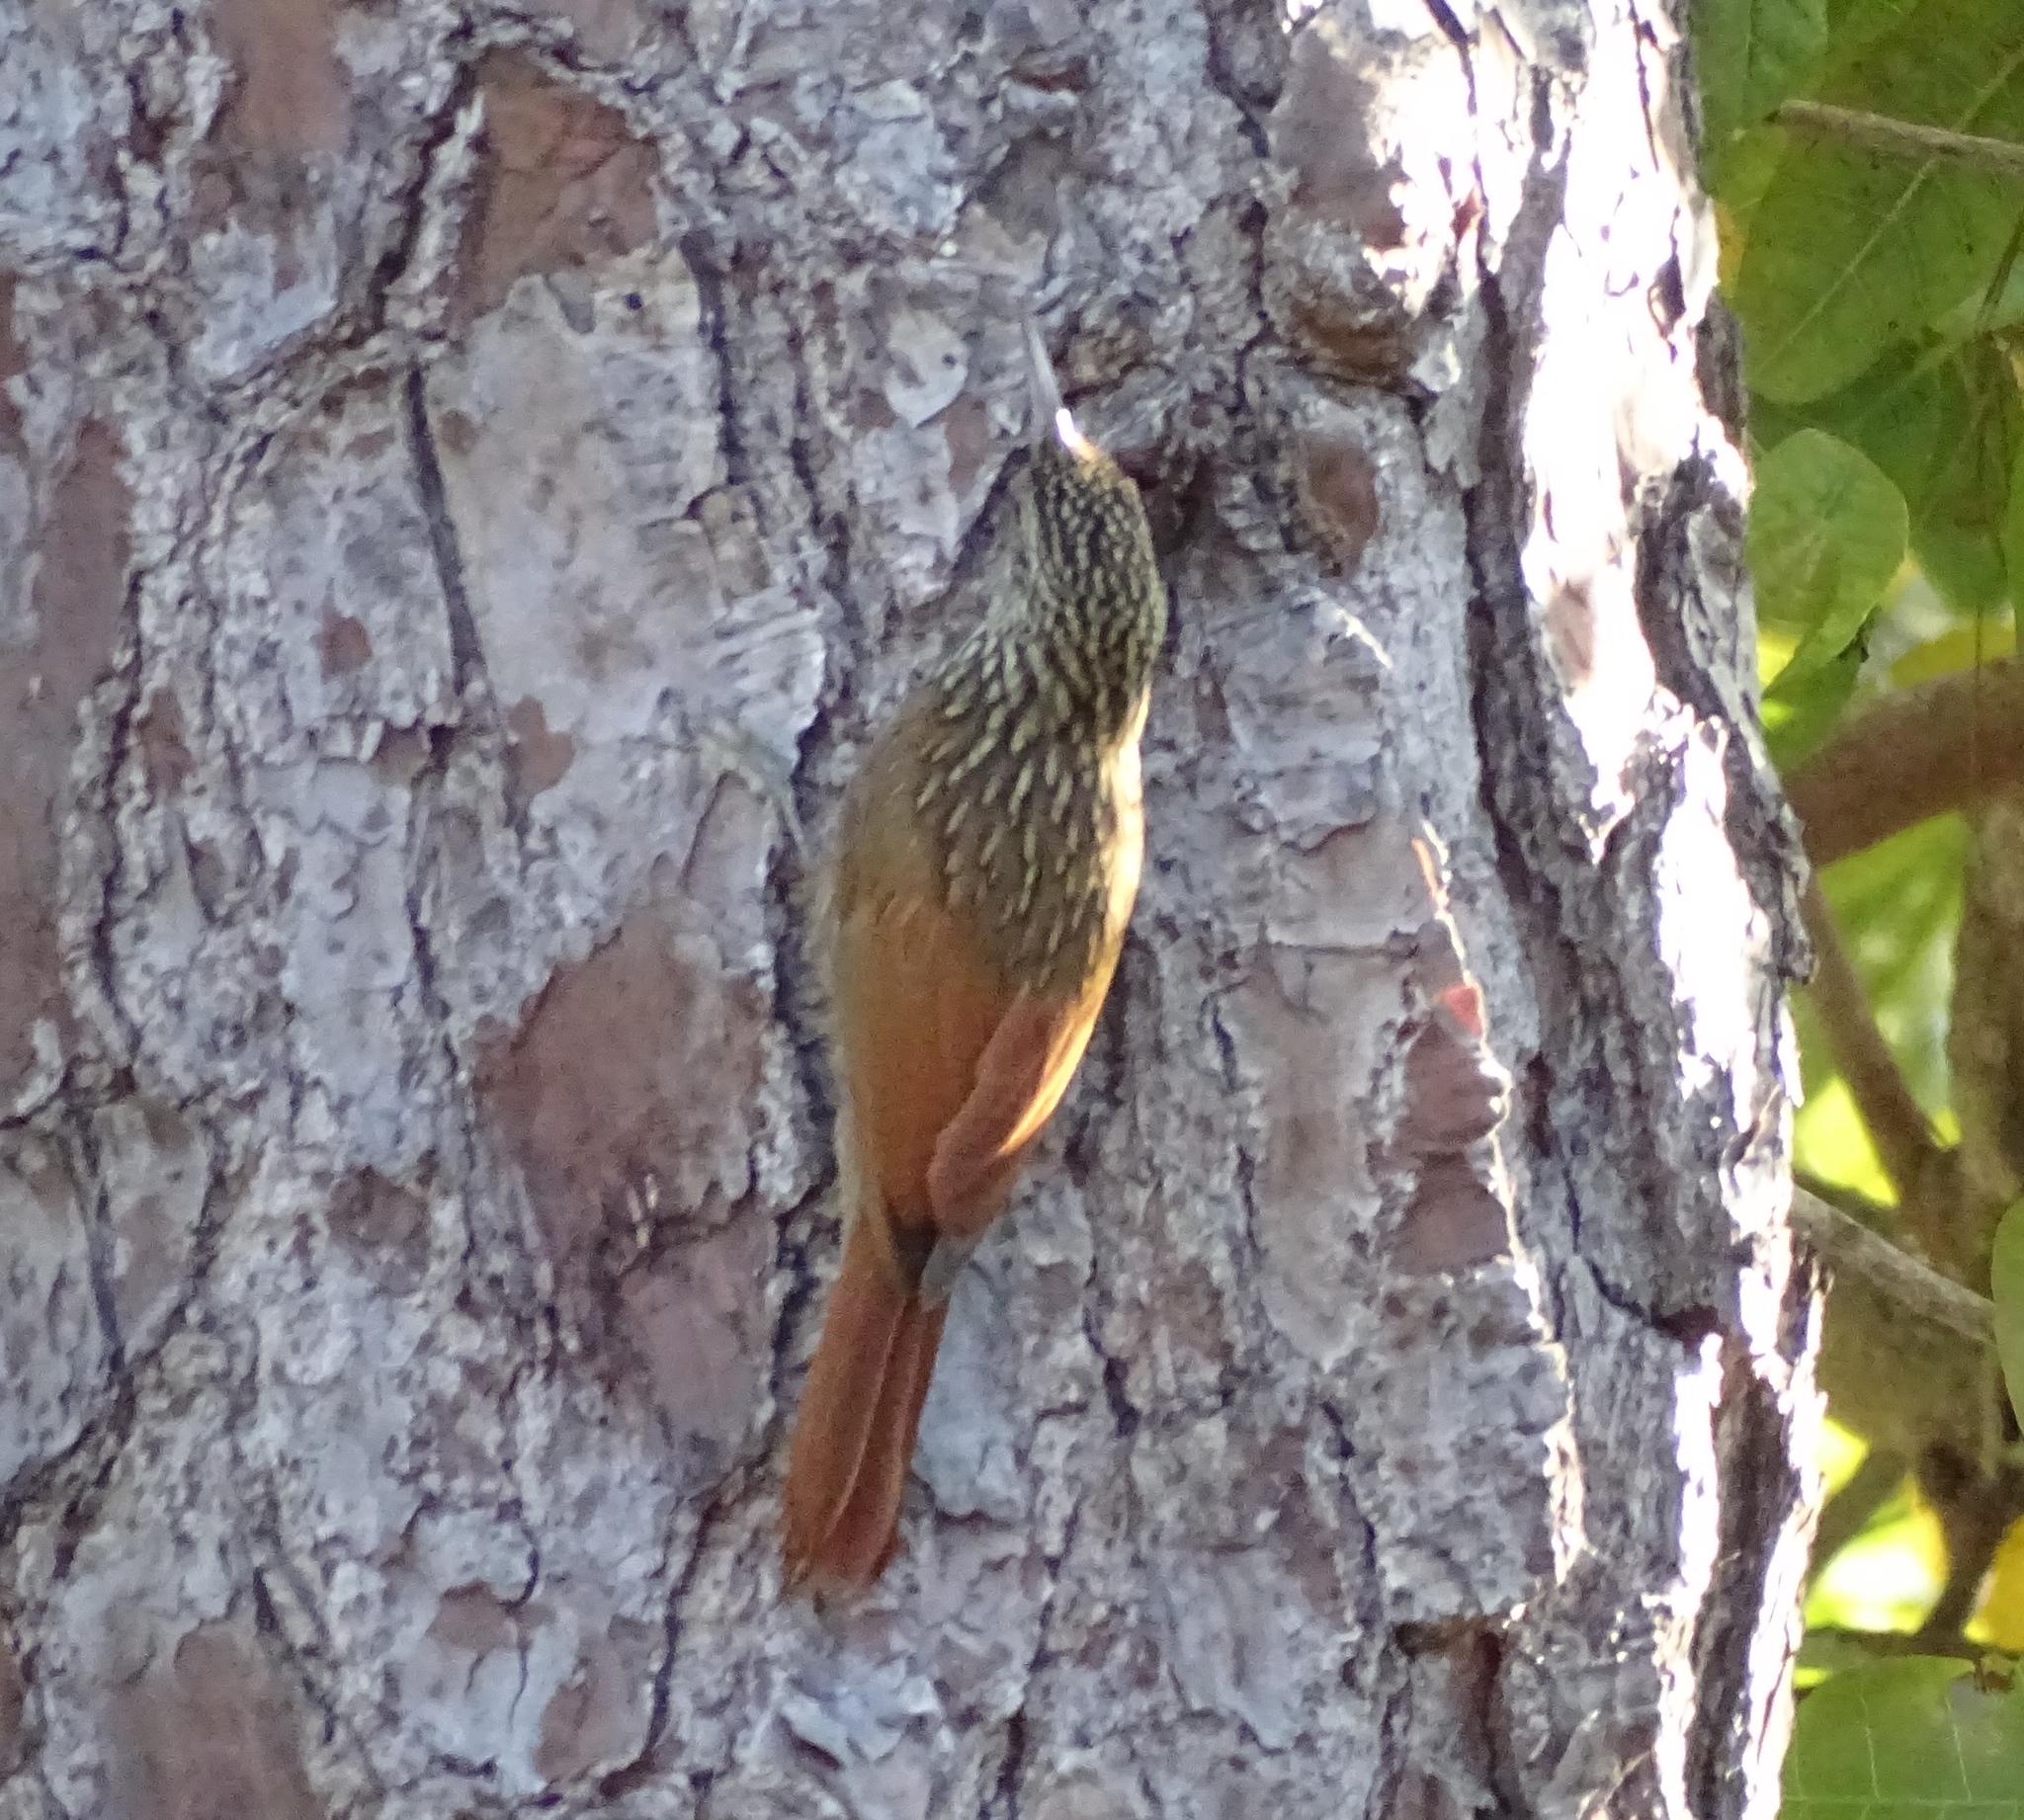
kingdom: Animalia
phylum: Chordata
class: Aves
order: Passeriformes
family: Furnariidae
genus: Xiphorhynchus
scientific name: Xiphorhynchus flavigaster
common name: Ivory-billed woodcreeper
